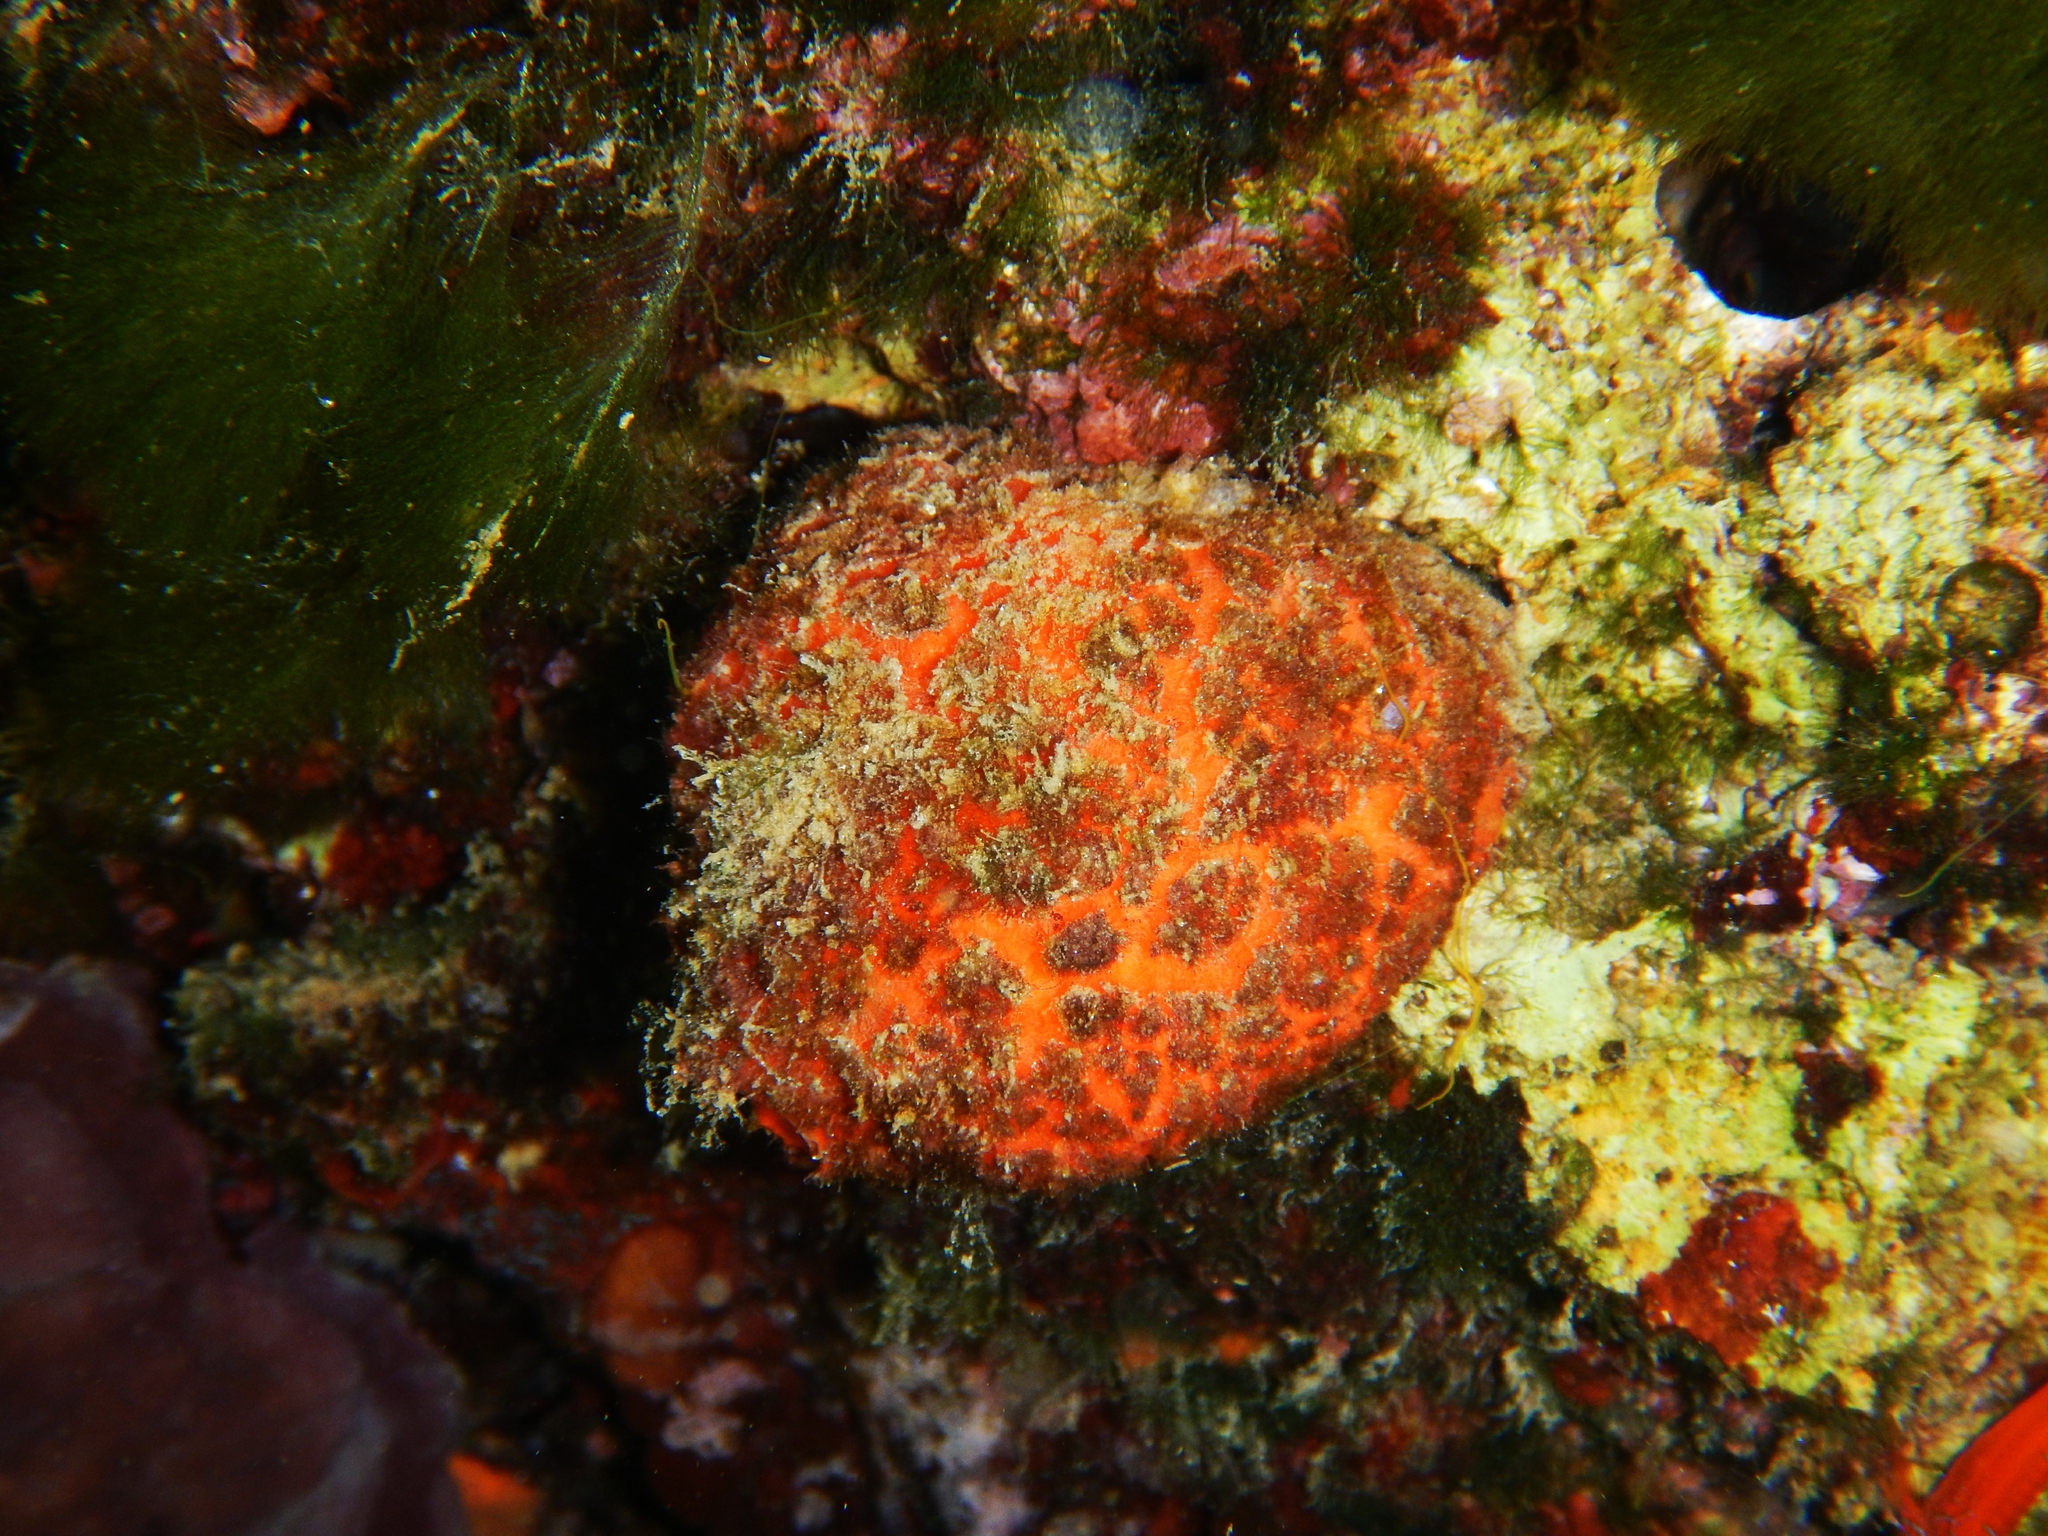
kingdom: Animalia
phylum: Porifera
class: Demospongiae
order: Tethyida
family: Tethyidae
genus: Tethya
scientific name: Tethya aurantium
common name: Golf ball sponge
